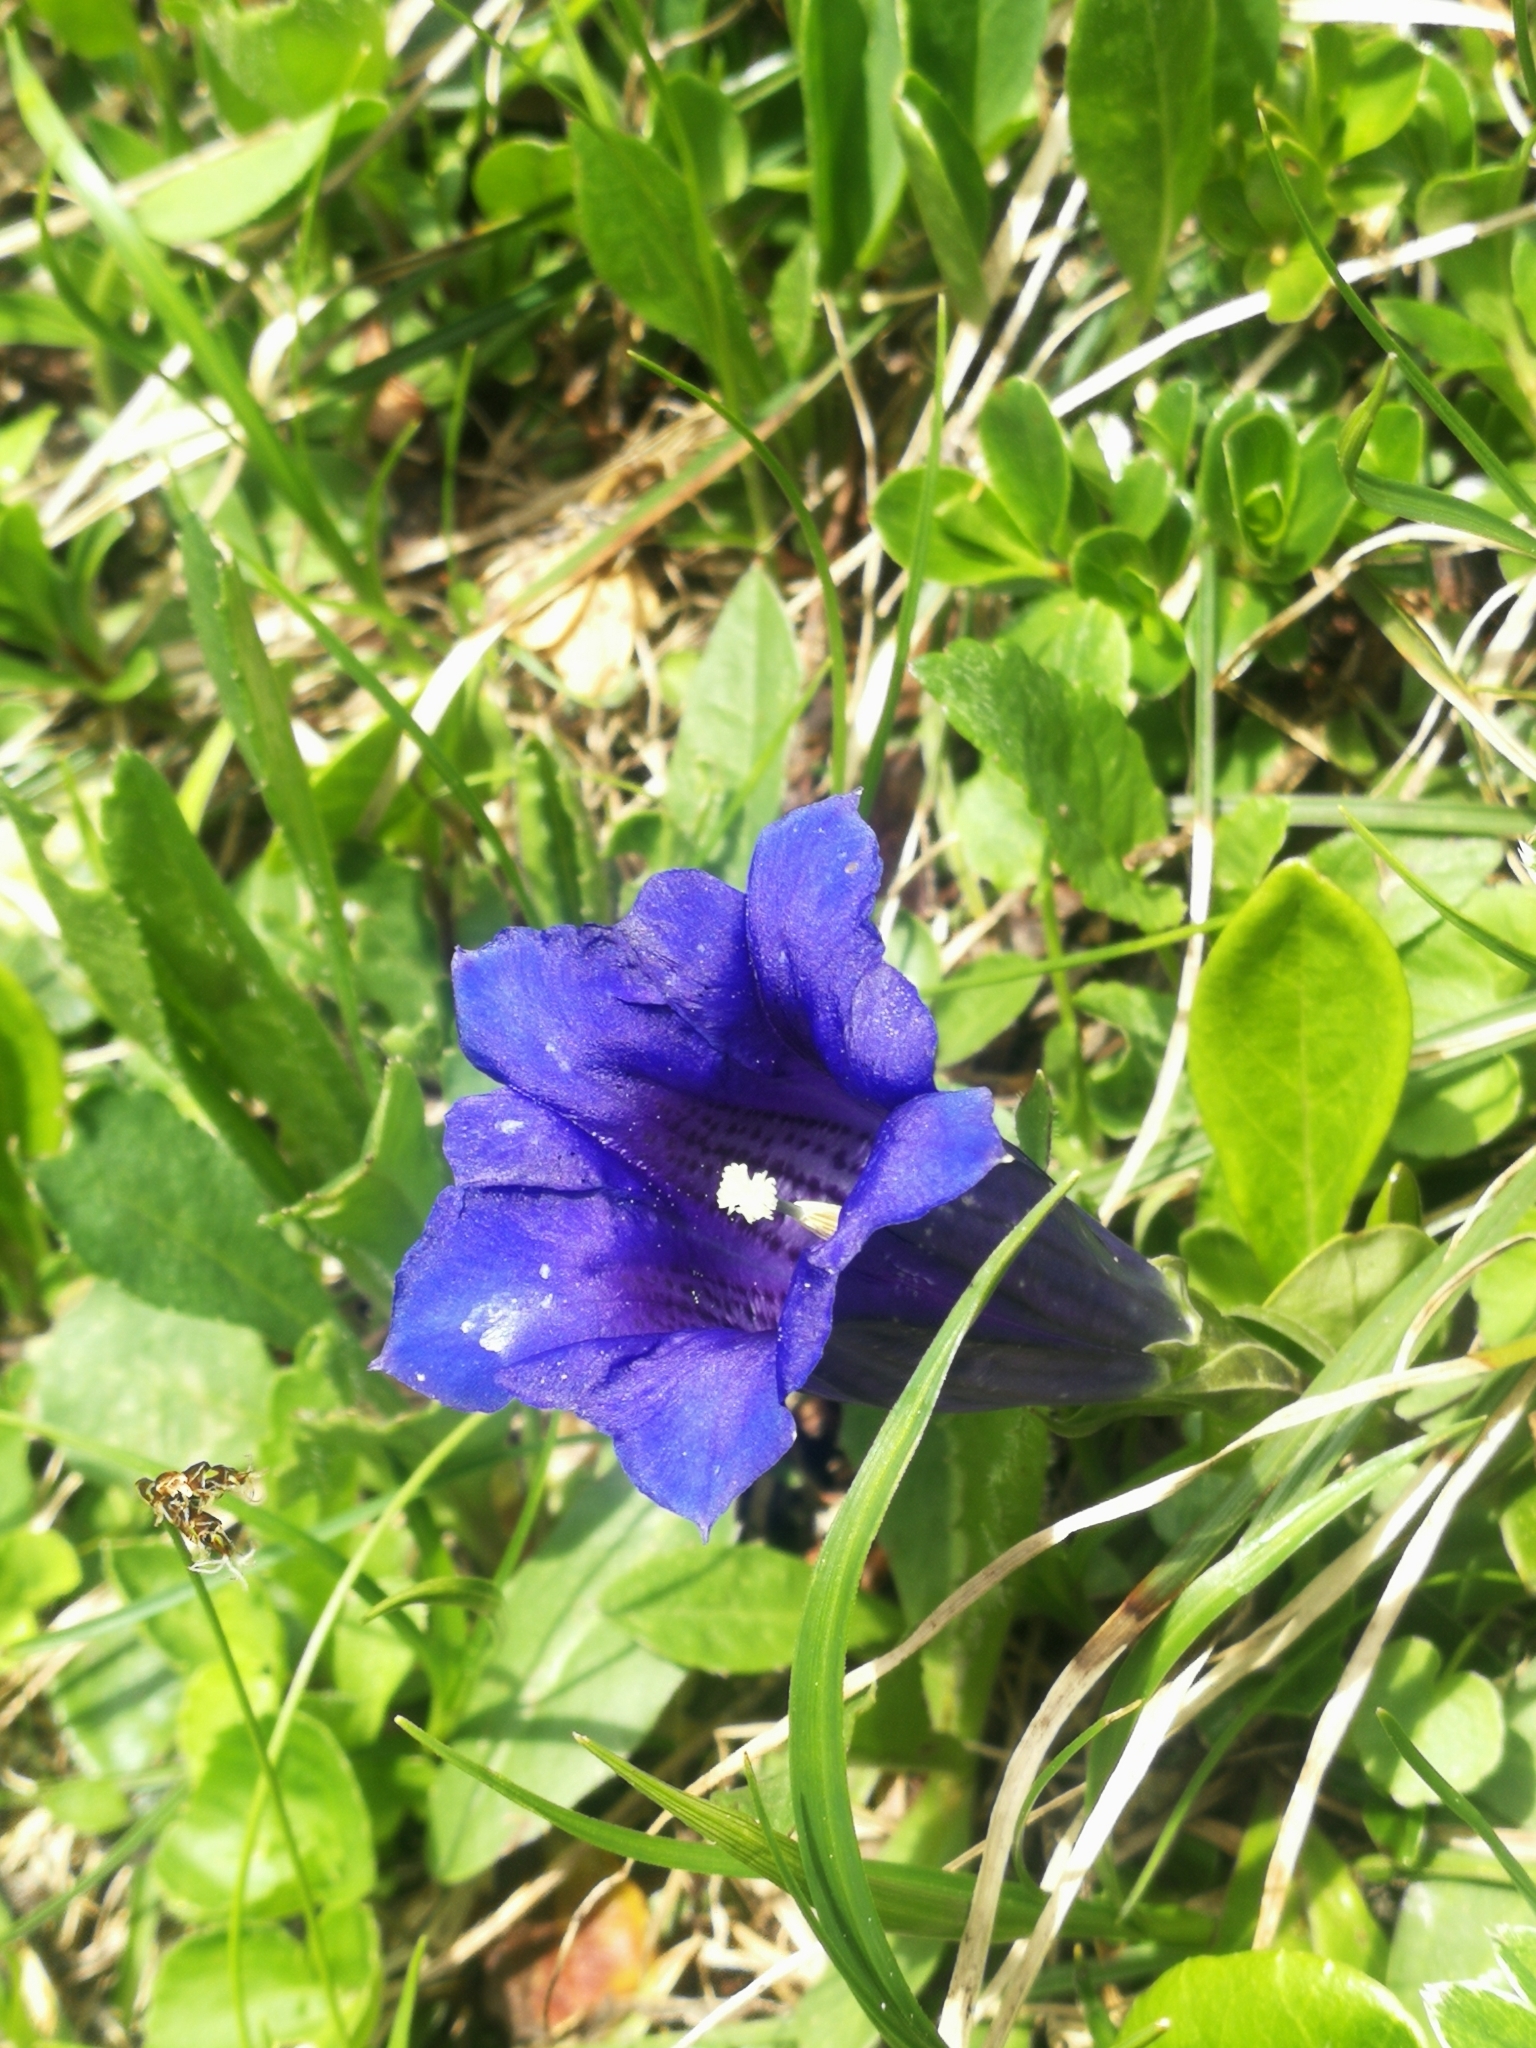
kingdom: Plantae
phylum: Tracheophyta
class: Magnoliopsida
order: Gentianales
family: Gentianaceae
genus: Gentiana
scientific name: Gentiana clusii
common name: Trumpet gentian
